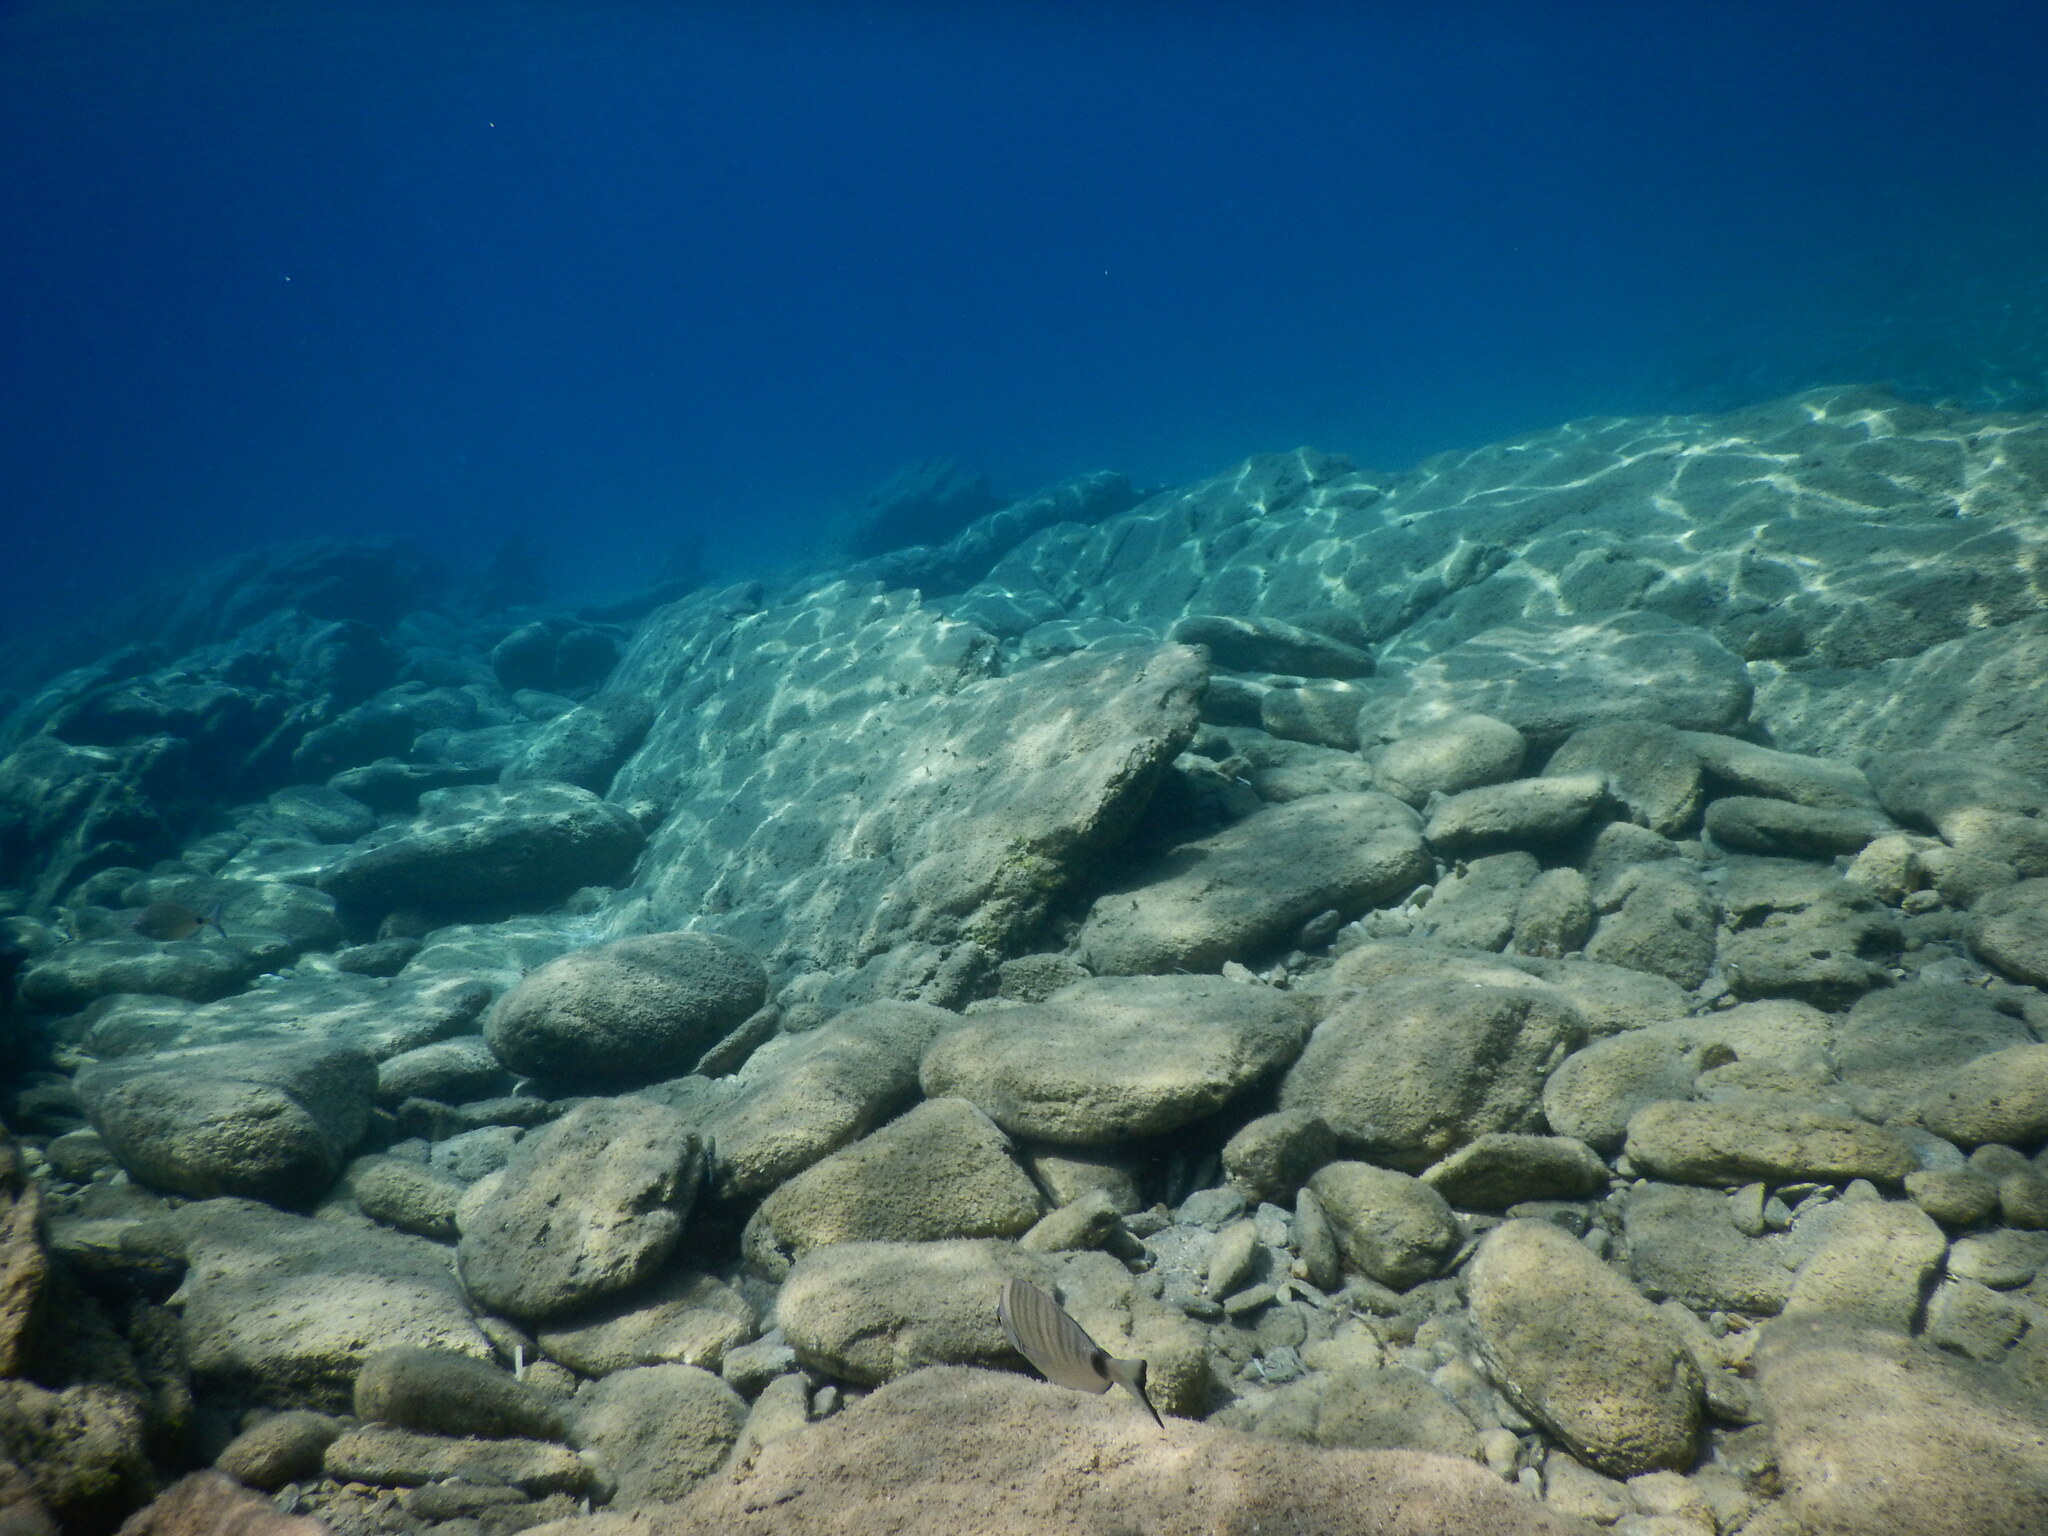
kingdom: Animalia
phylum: Chordata
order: Perciformes
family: Sparidae
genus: Diplodus
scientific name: Diplodus puntazzo
